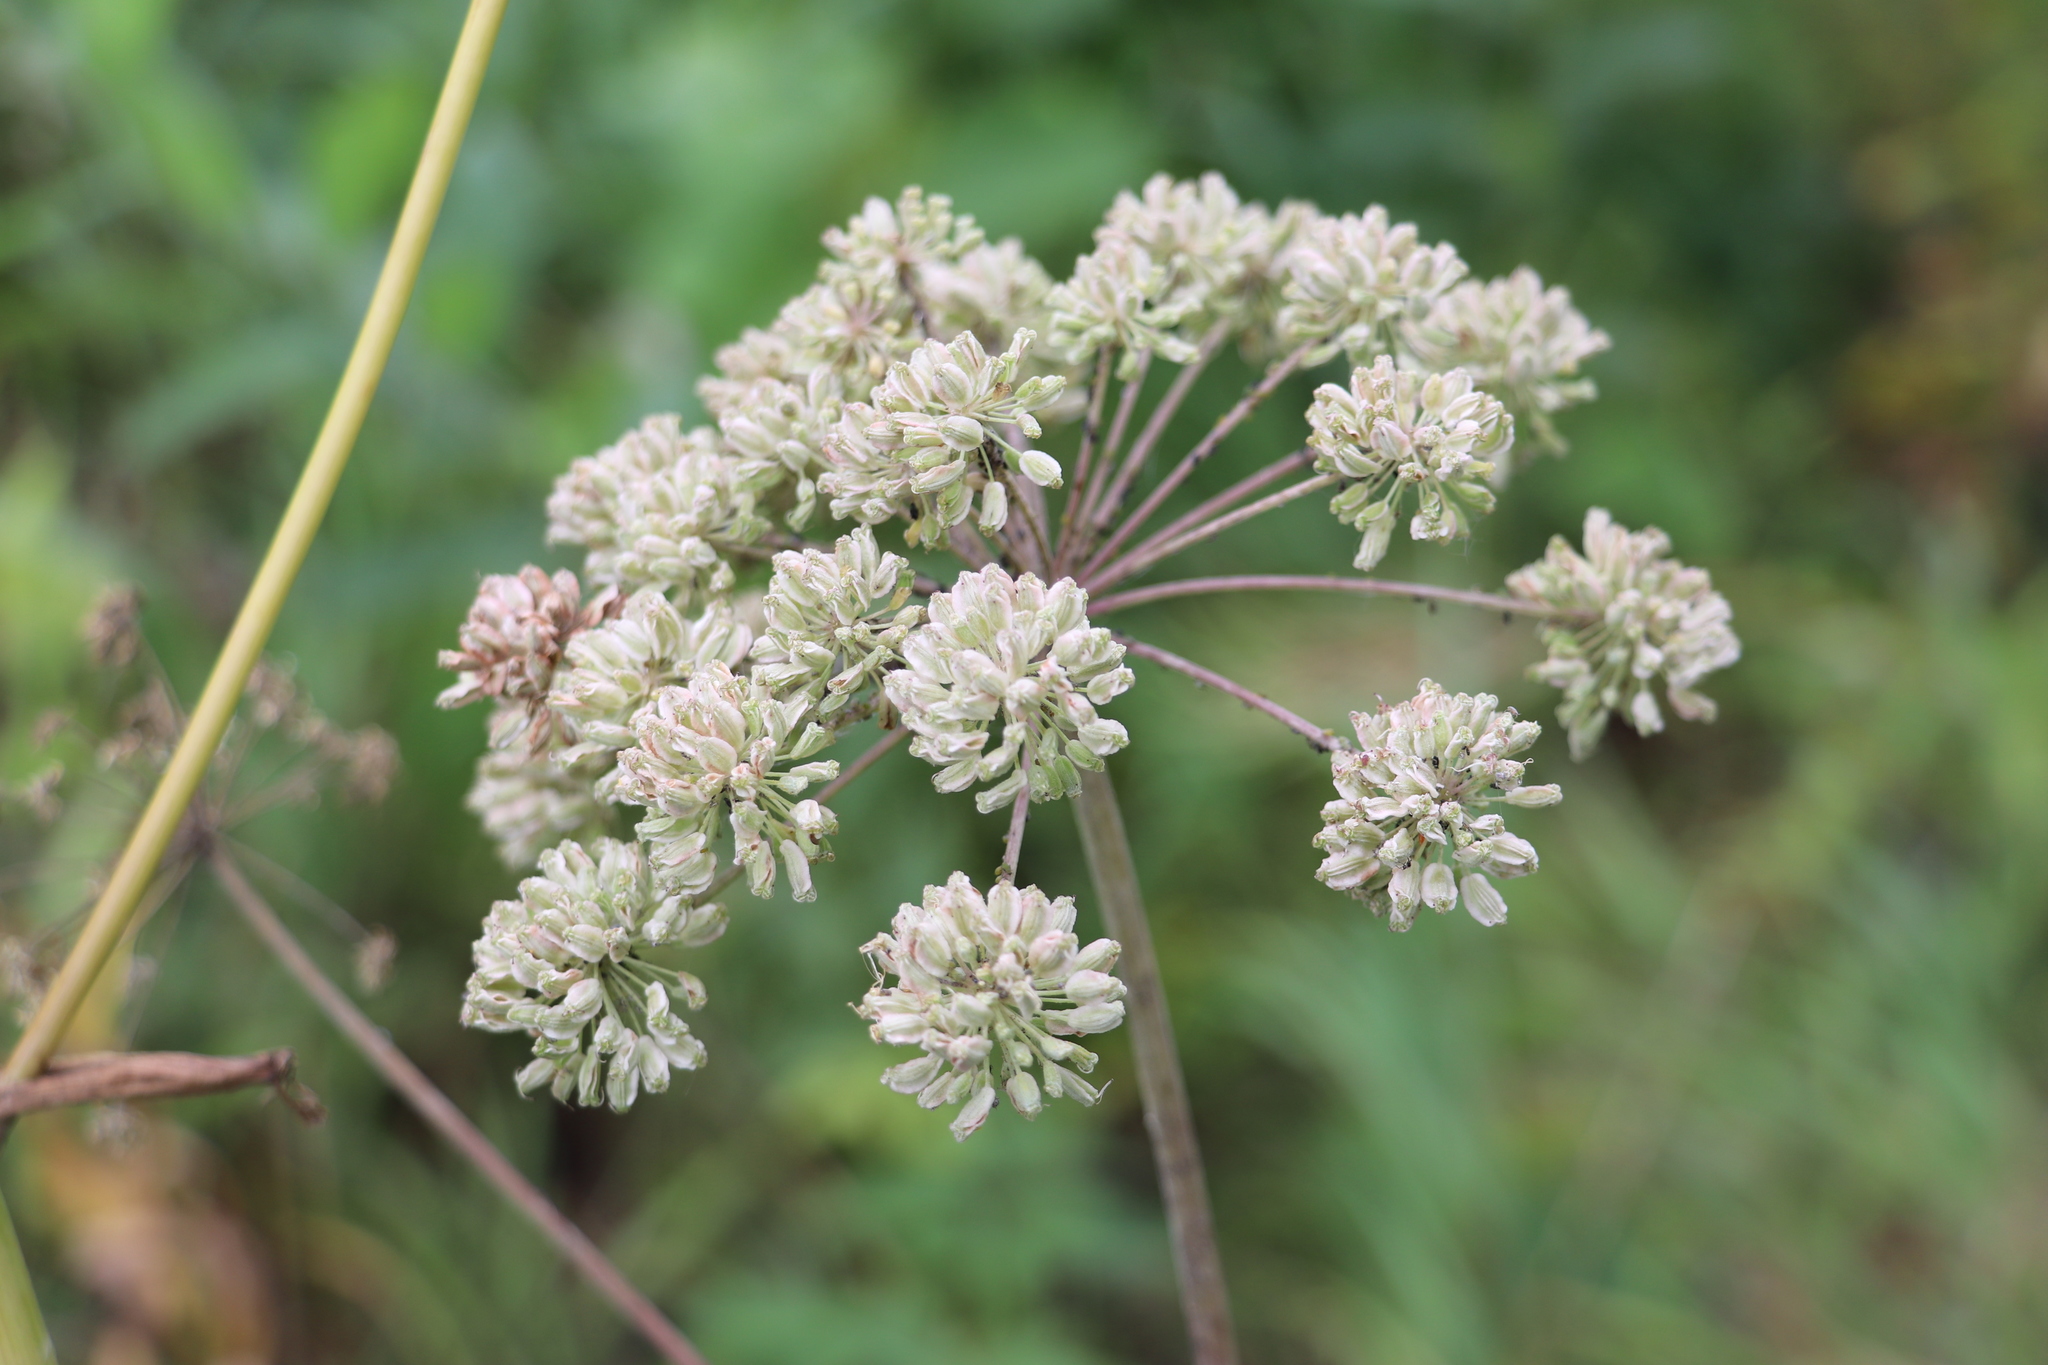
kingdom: Plantae
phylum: Tracheophyta
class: Magnoliopsida
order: Apiales
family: Apiaceae
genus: Angelica
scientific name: Angelica sylvestris
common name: Wild angelica
